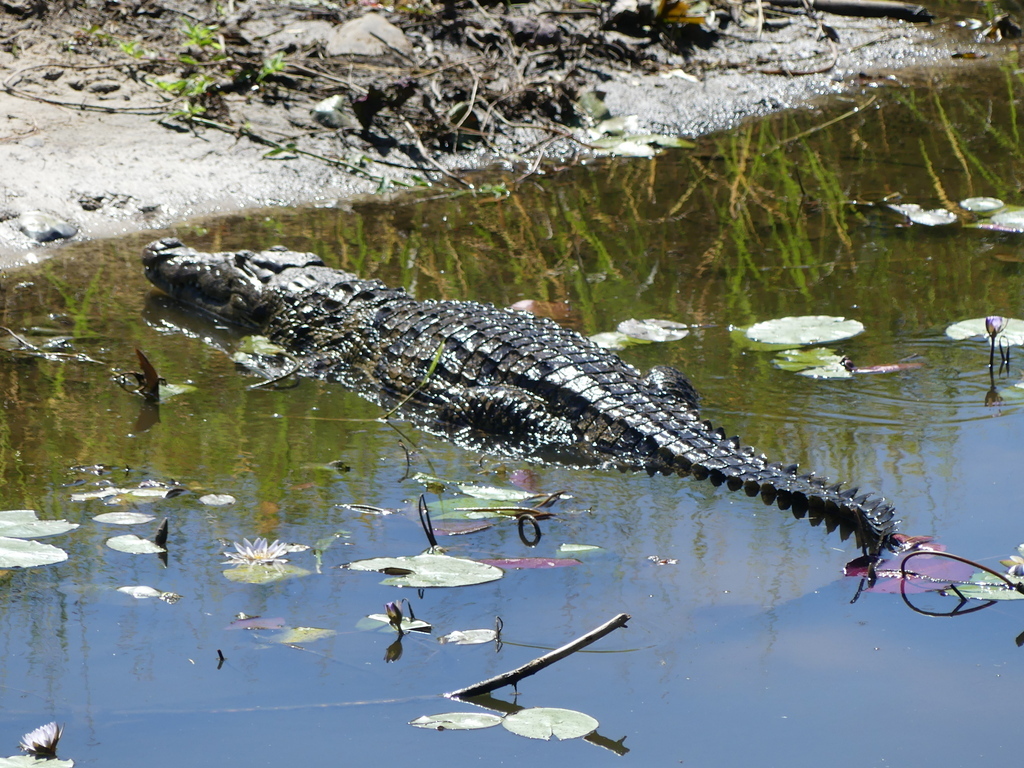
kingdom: Animalia
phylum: Chordata
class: Crocodylia
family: Crocodylidae
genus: Crocodylus
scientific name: Crocodylus niloticus
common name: Nile crocodile
